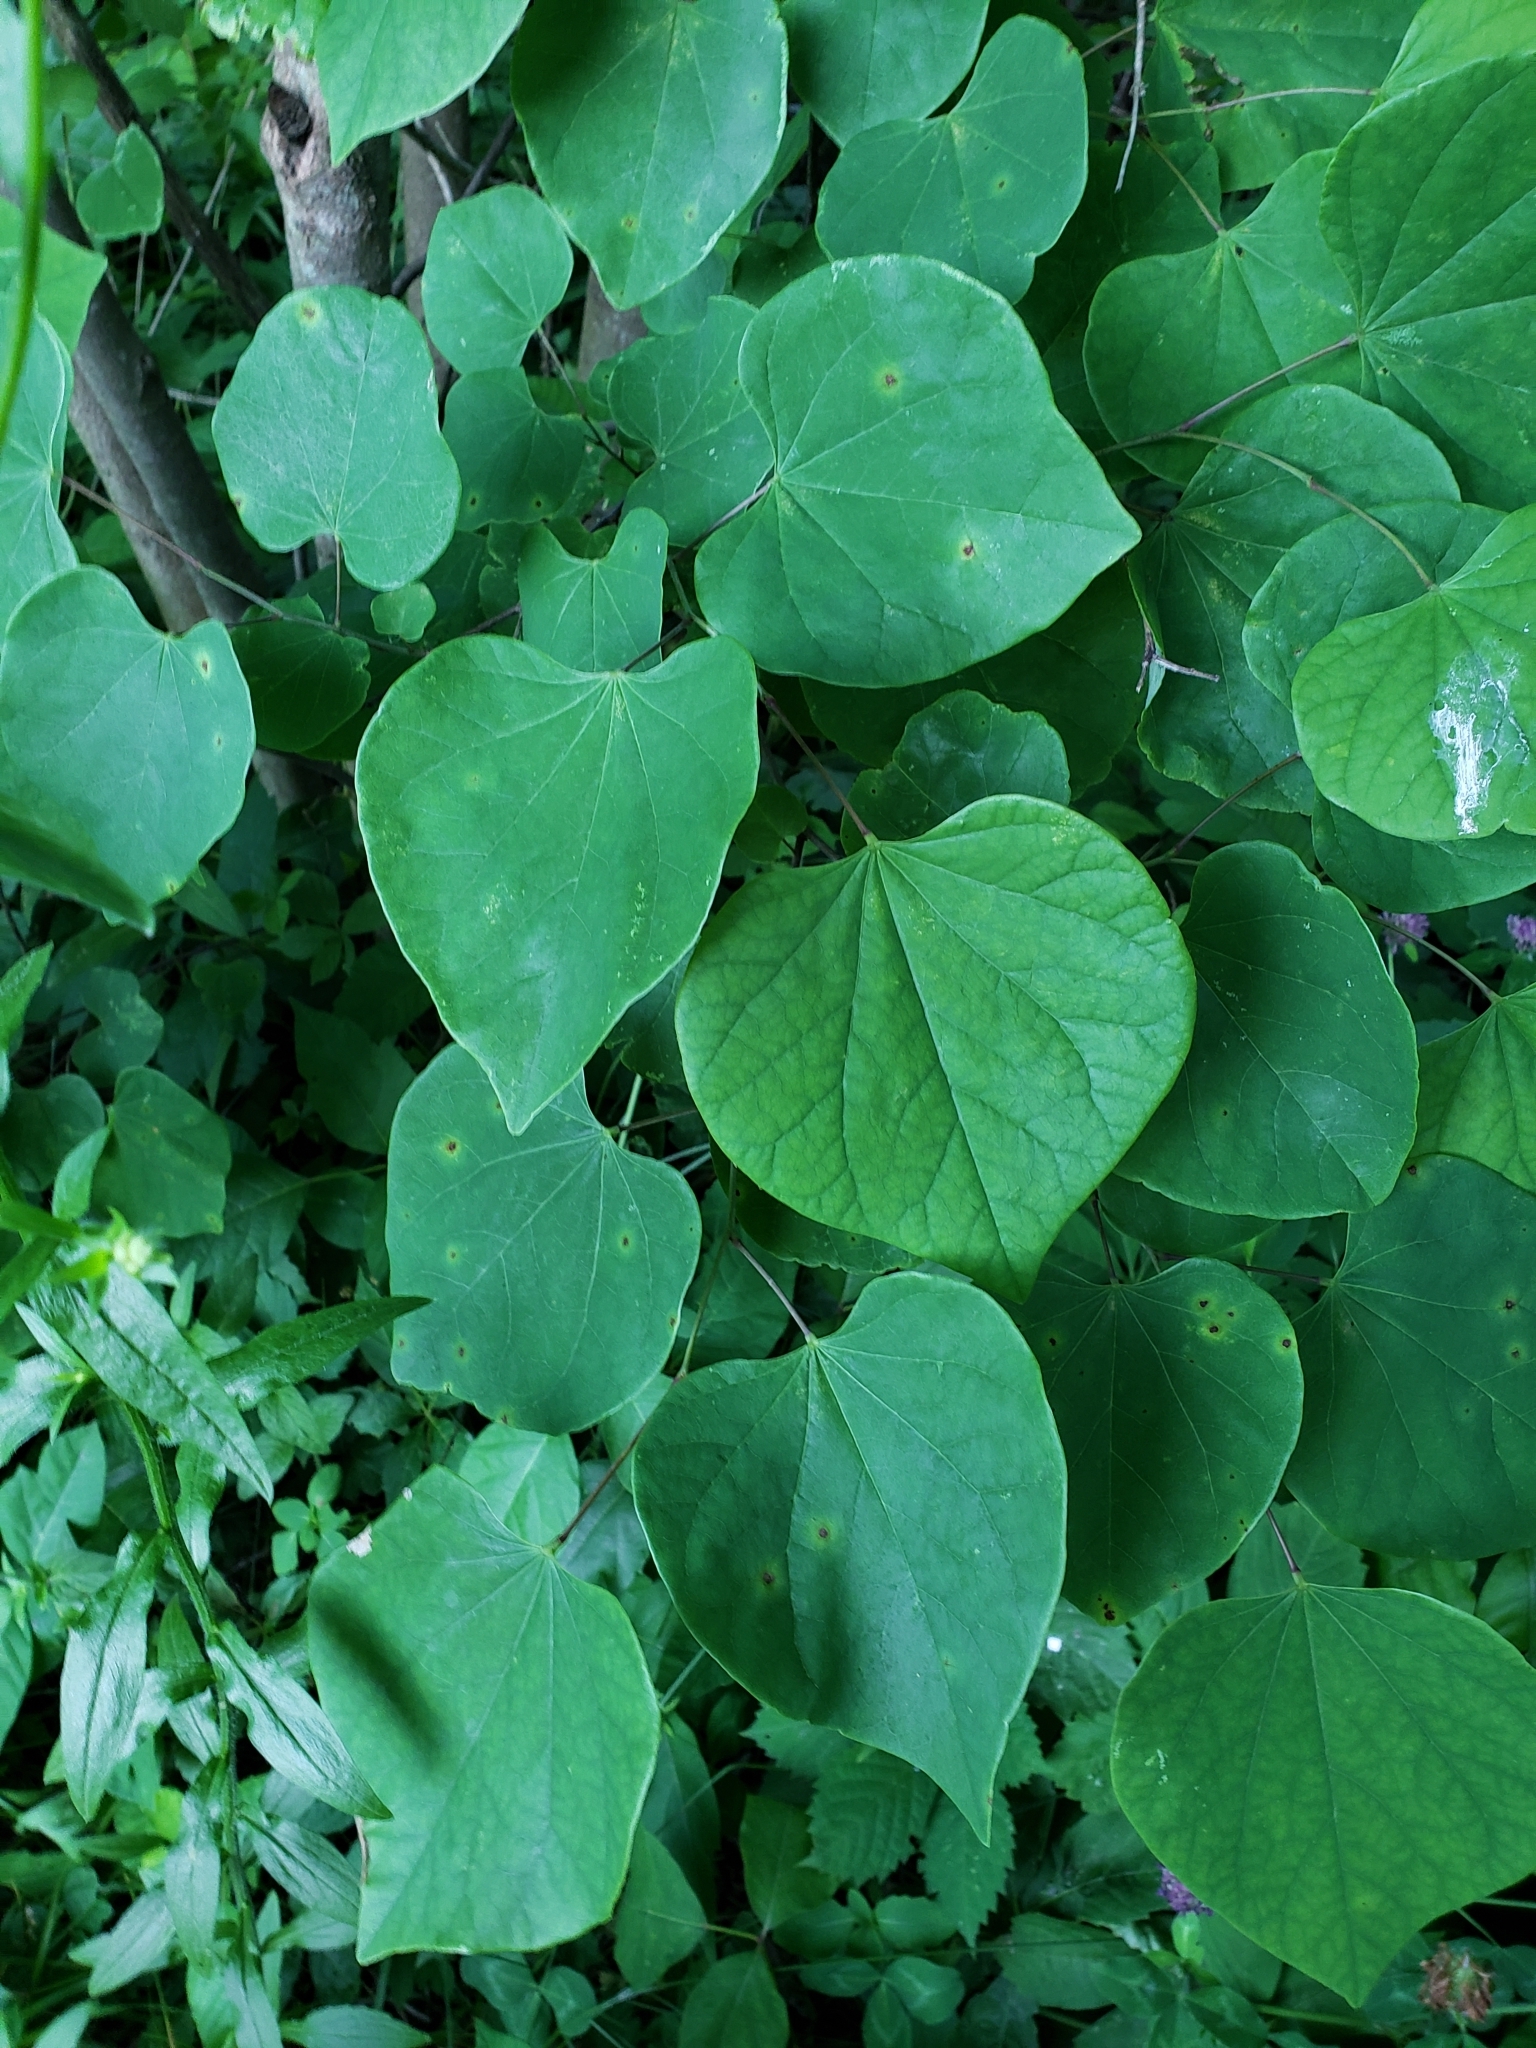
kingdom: Plantae
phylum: Tracheophyta
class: Magnoliopsida
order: Fabales
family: Fabaceae
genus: Cercis
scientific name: Cercis canadensis
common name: Eastern redbud
